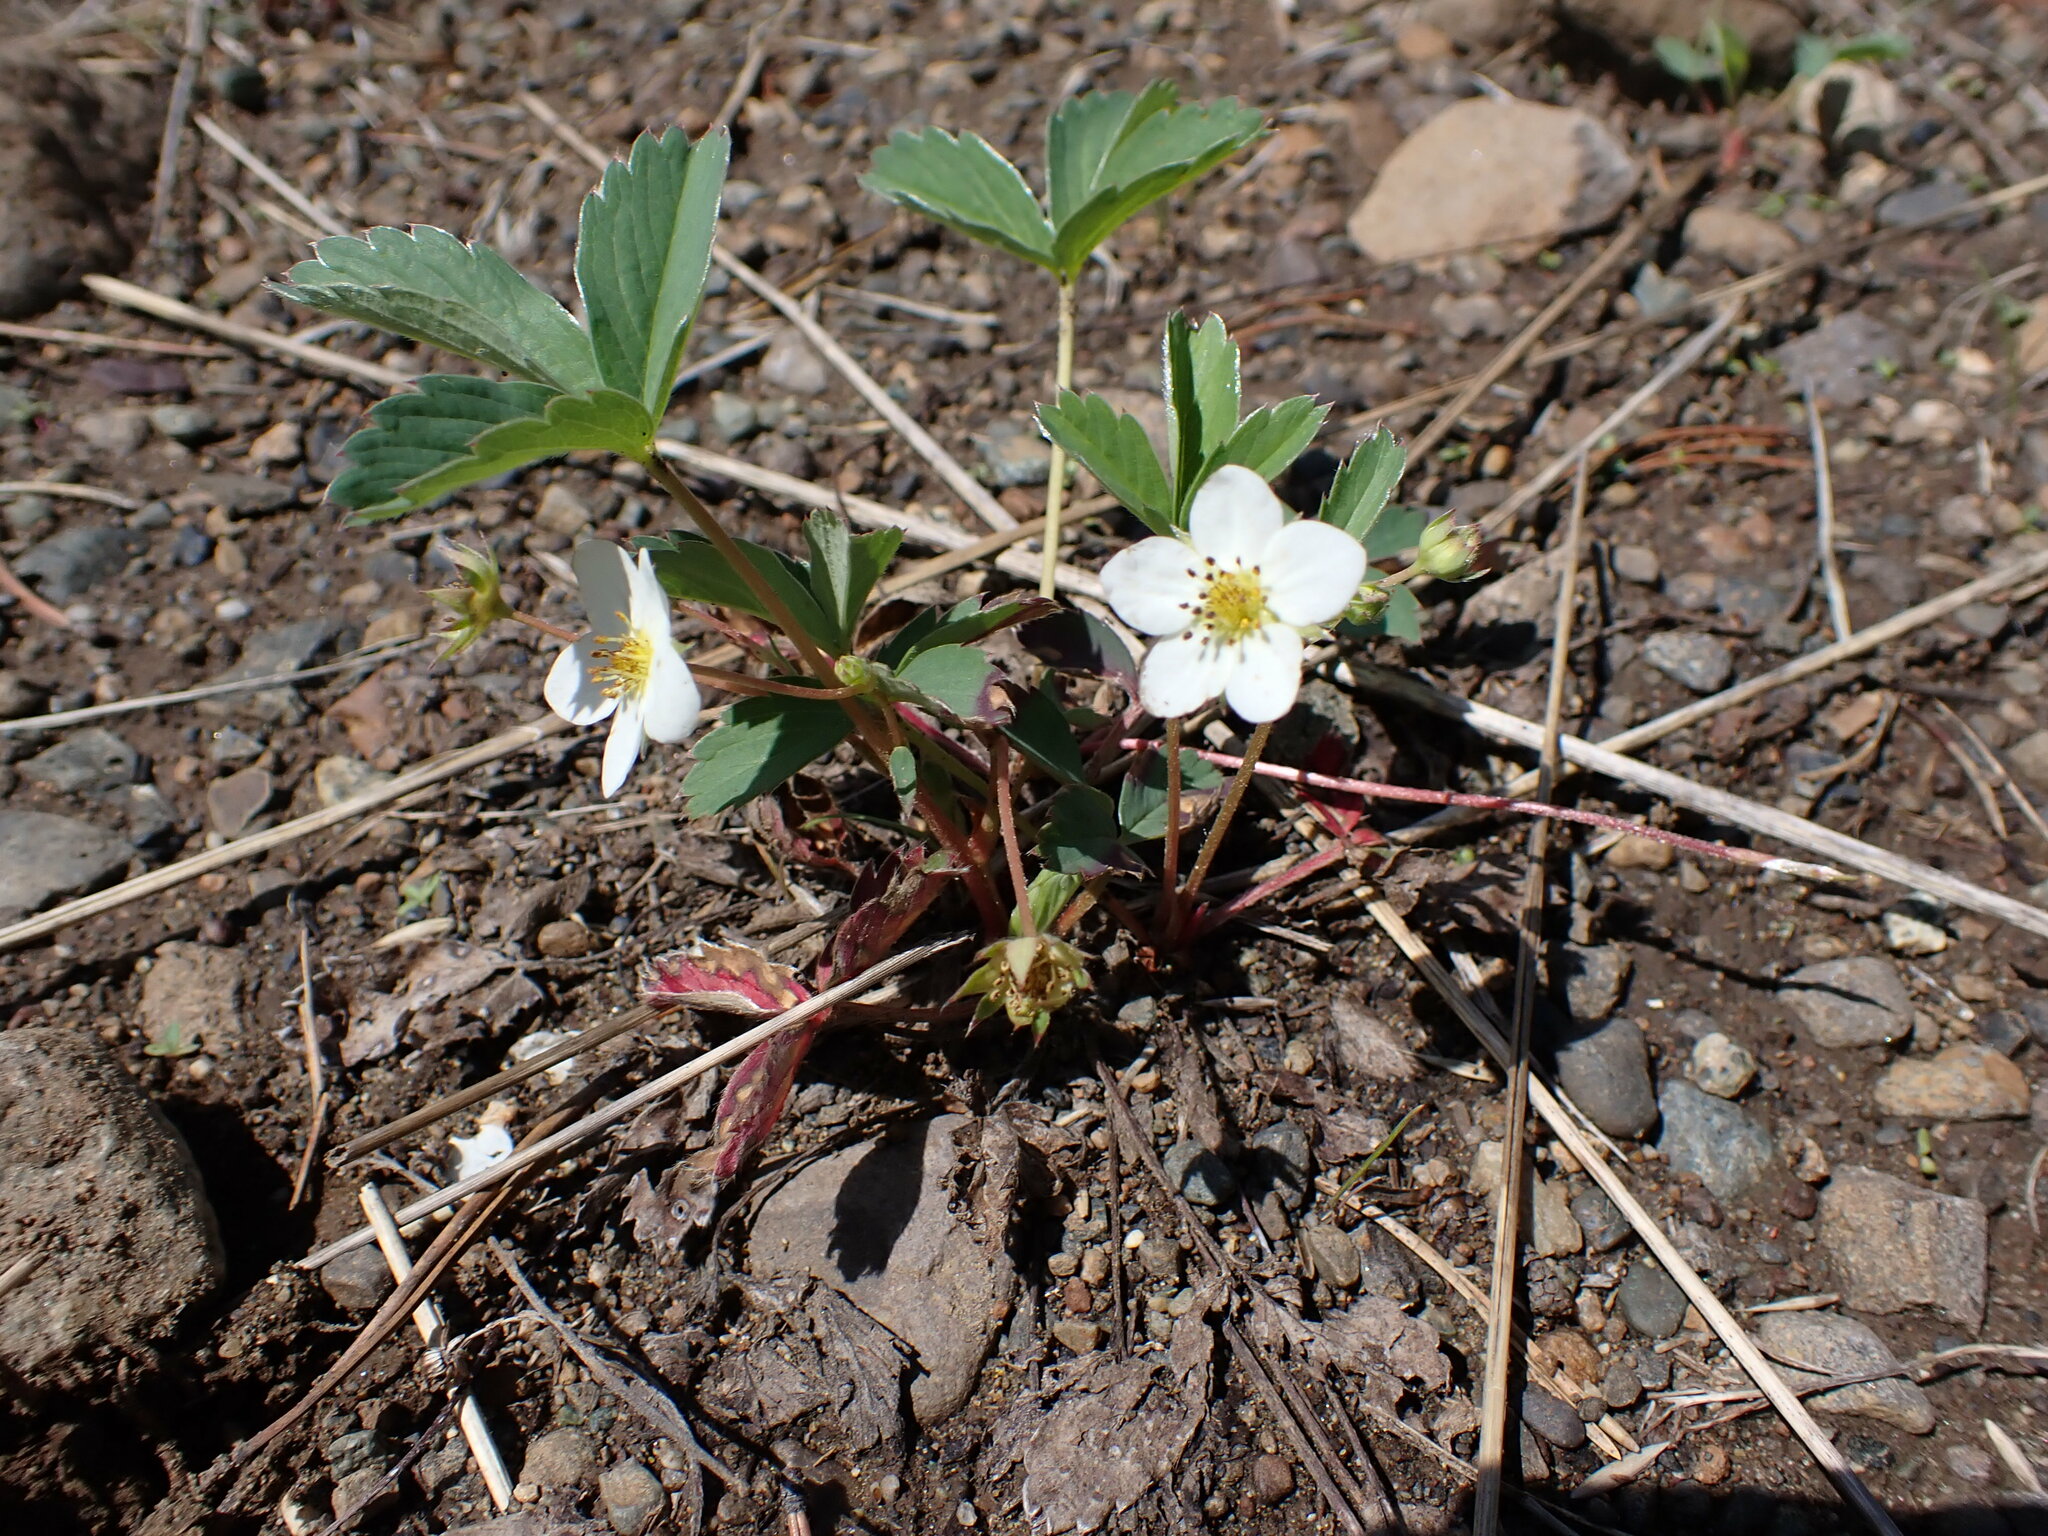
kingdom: Plantae
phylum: Tracheophyta
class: Magnoliopsida
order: Rosales
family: Rosaceae
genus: Fragaria
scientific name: Fragaria virginiana
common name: Thickleaved wild strawberry
